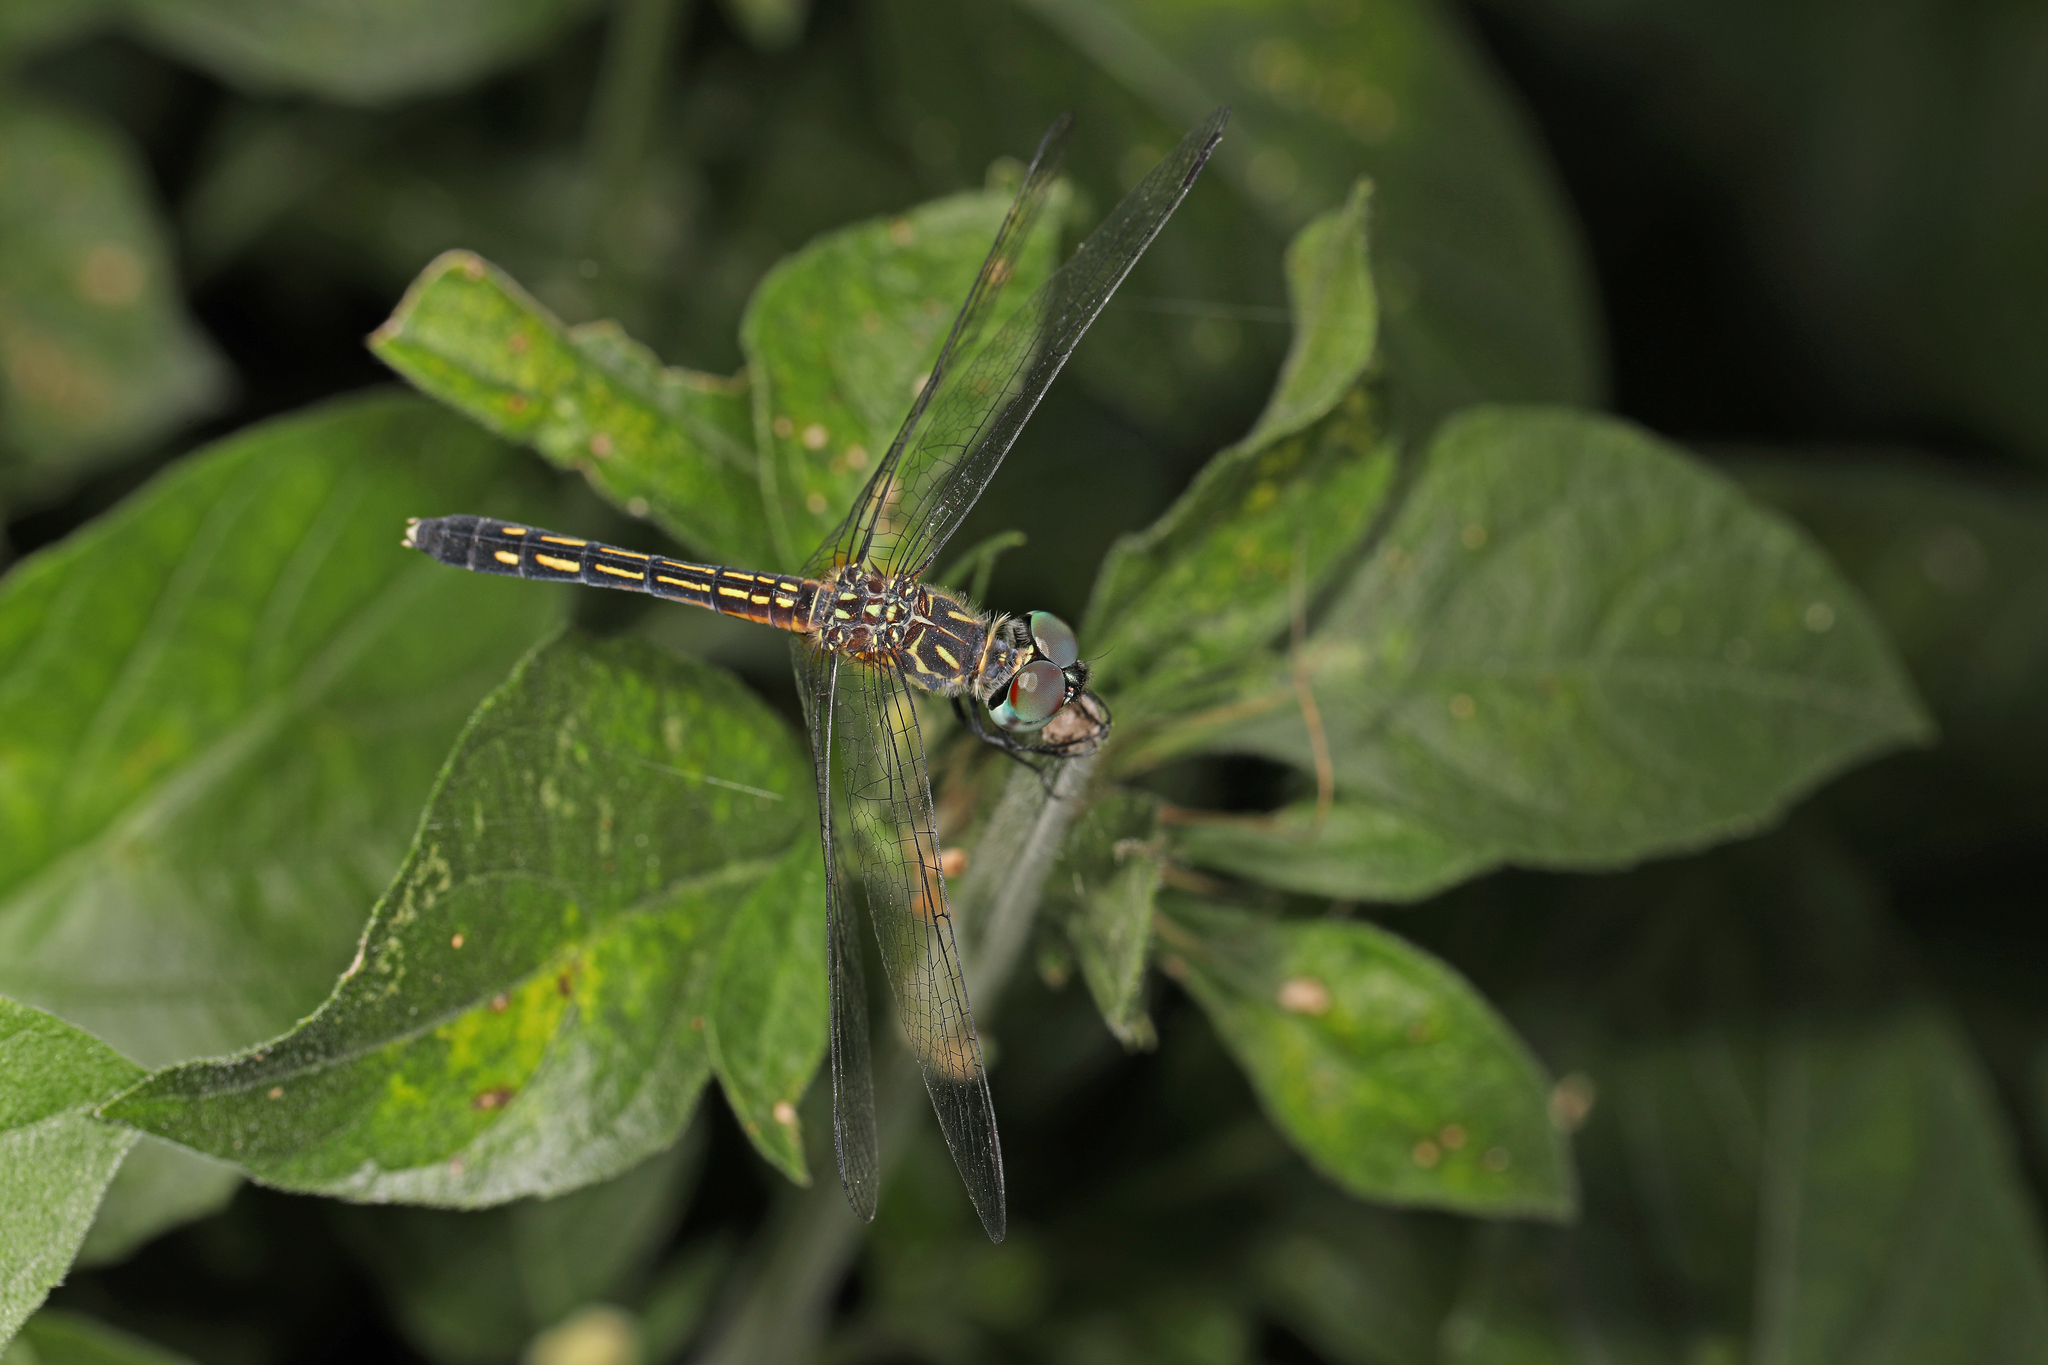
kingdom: Animalia
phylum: Arthropoda
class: Insecta
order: Odonata
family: Libellulidae
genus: Pachydiplax
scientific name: Pachydiplax longipennis
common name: Blue dasher
